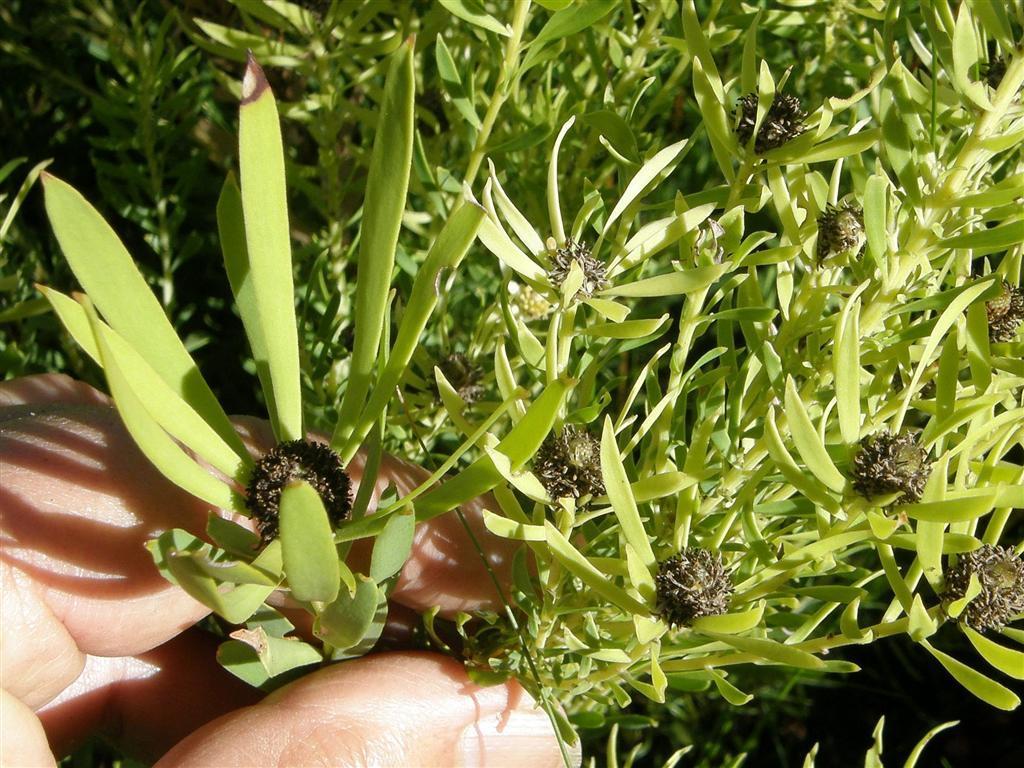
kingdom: Plantae
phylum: Tracheophyta
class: Magnoliopsida
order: Proteales
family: Proteaceae
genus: Leucadendron
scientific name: Leucadendron salignum
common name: Common sunshine conebush
